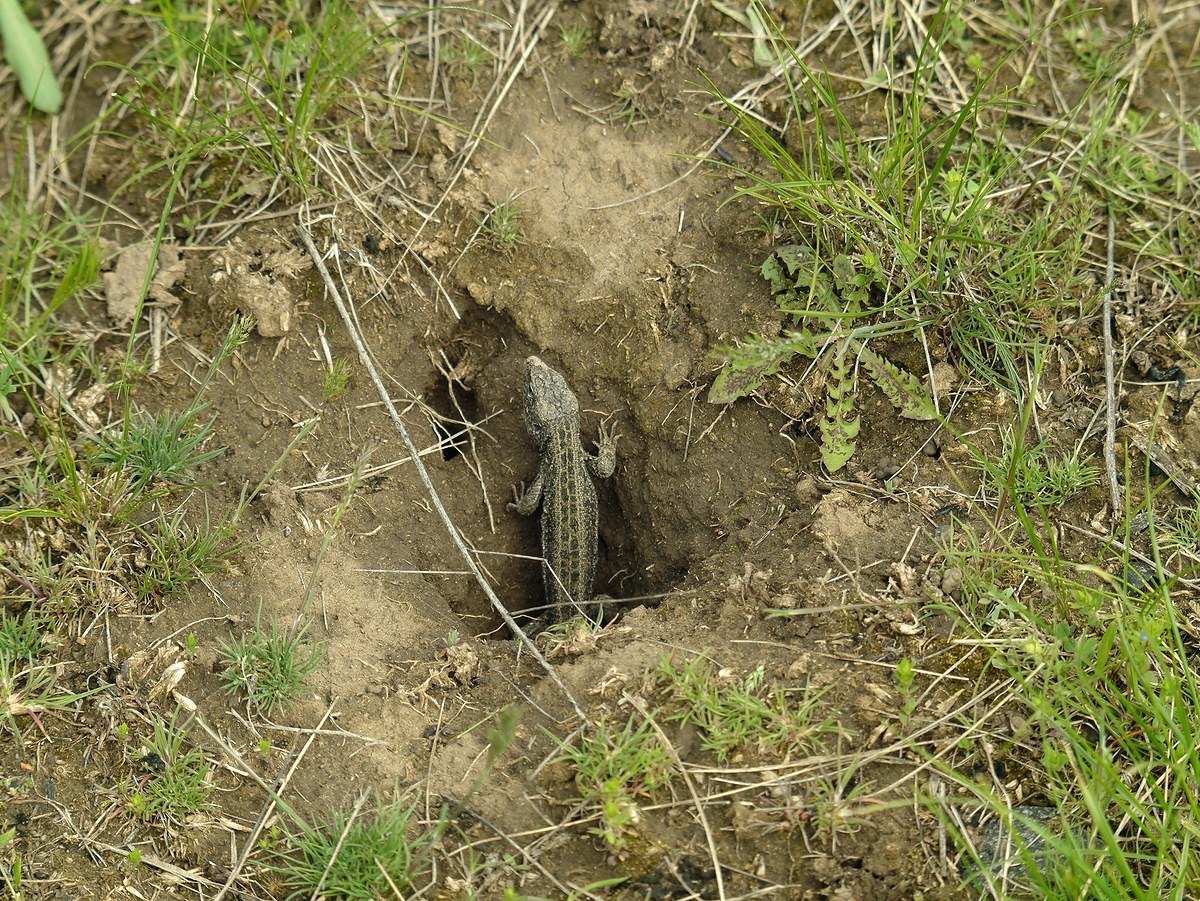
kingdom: Animalia
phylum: Chordata
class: Squamata
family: Lacertidae
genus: Lacerta
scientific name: Lacerta agilis
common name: Sand lizard
